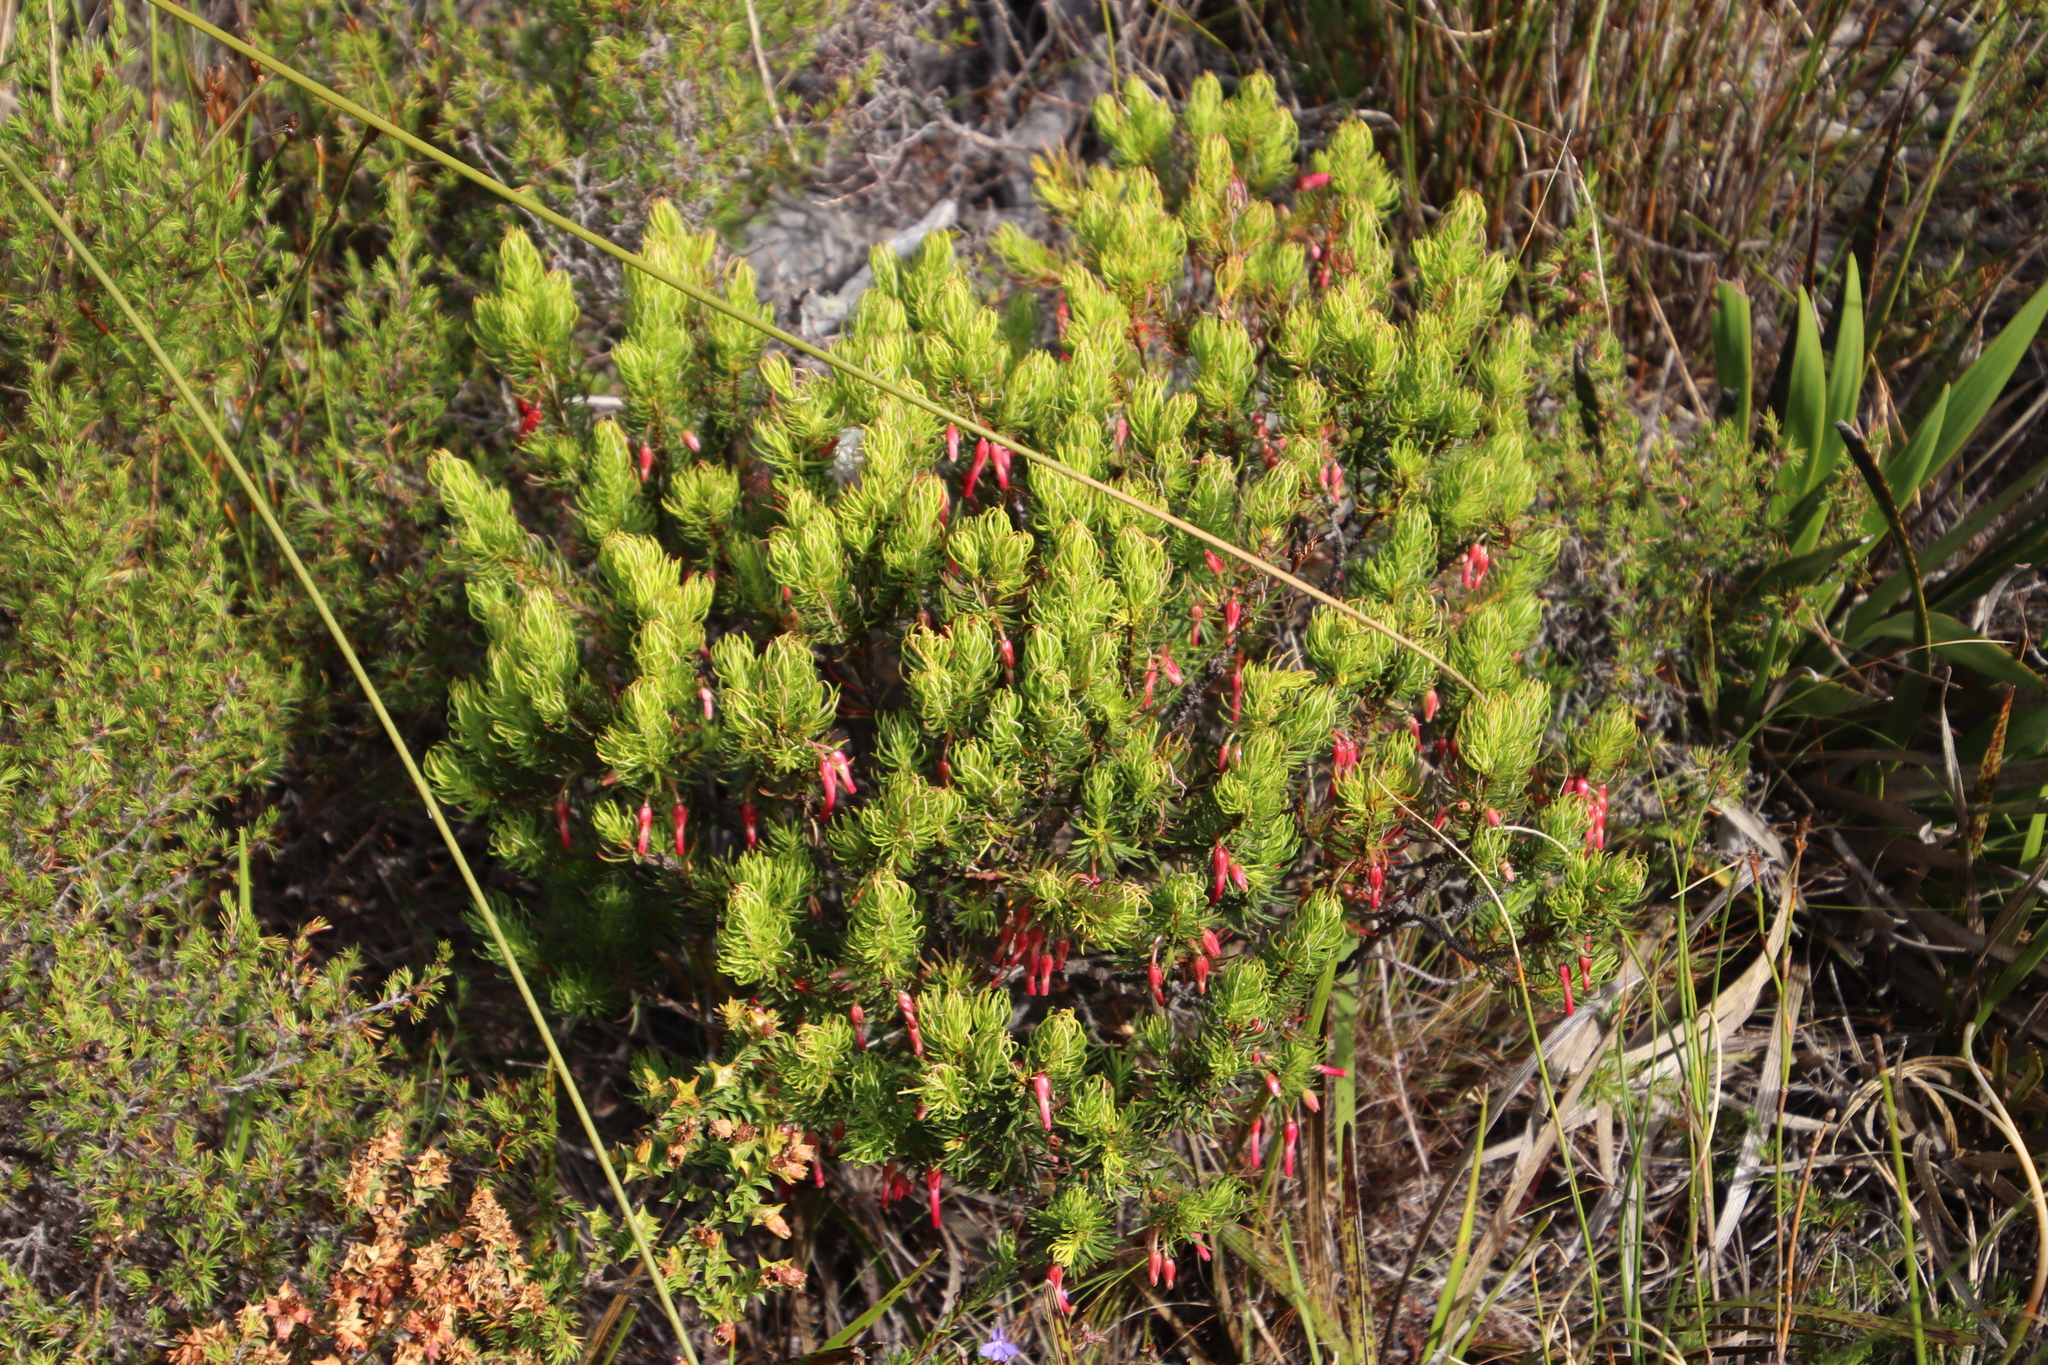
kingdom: Plantae
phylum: Tracheophyta
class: Magnoliopsida
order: Ericales
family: Ericaceae
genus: Erica
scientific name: Erica plukenetii
